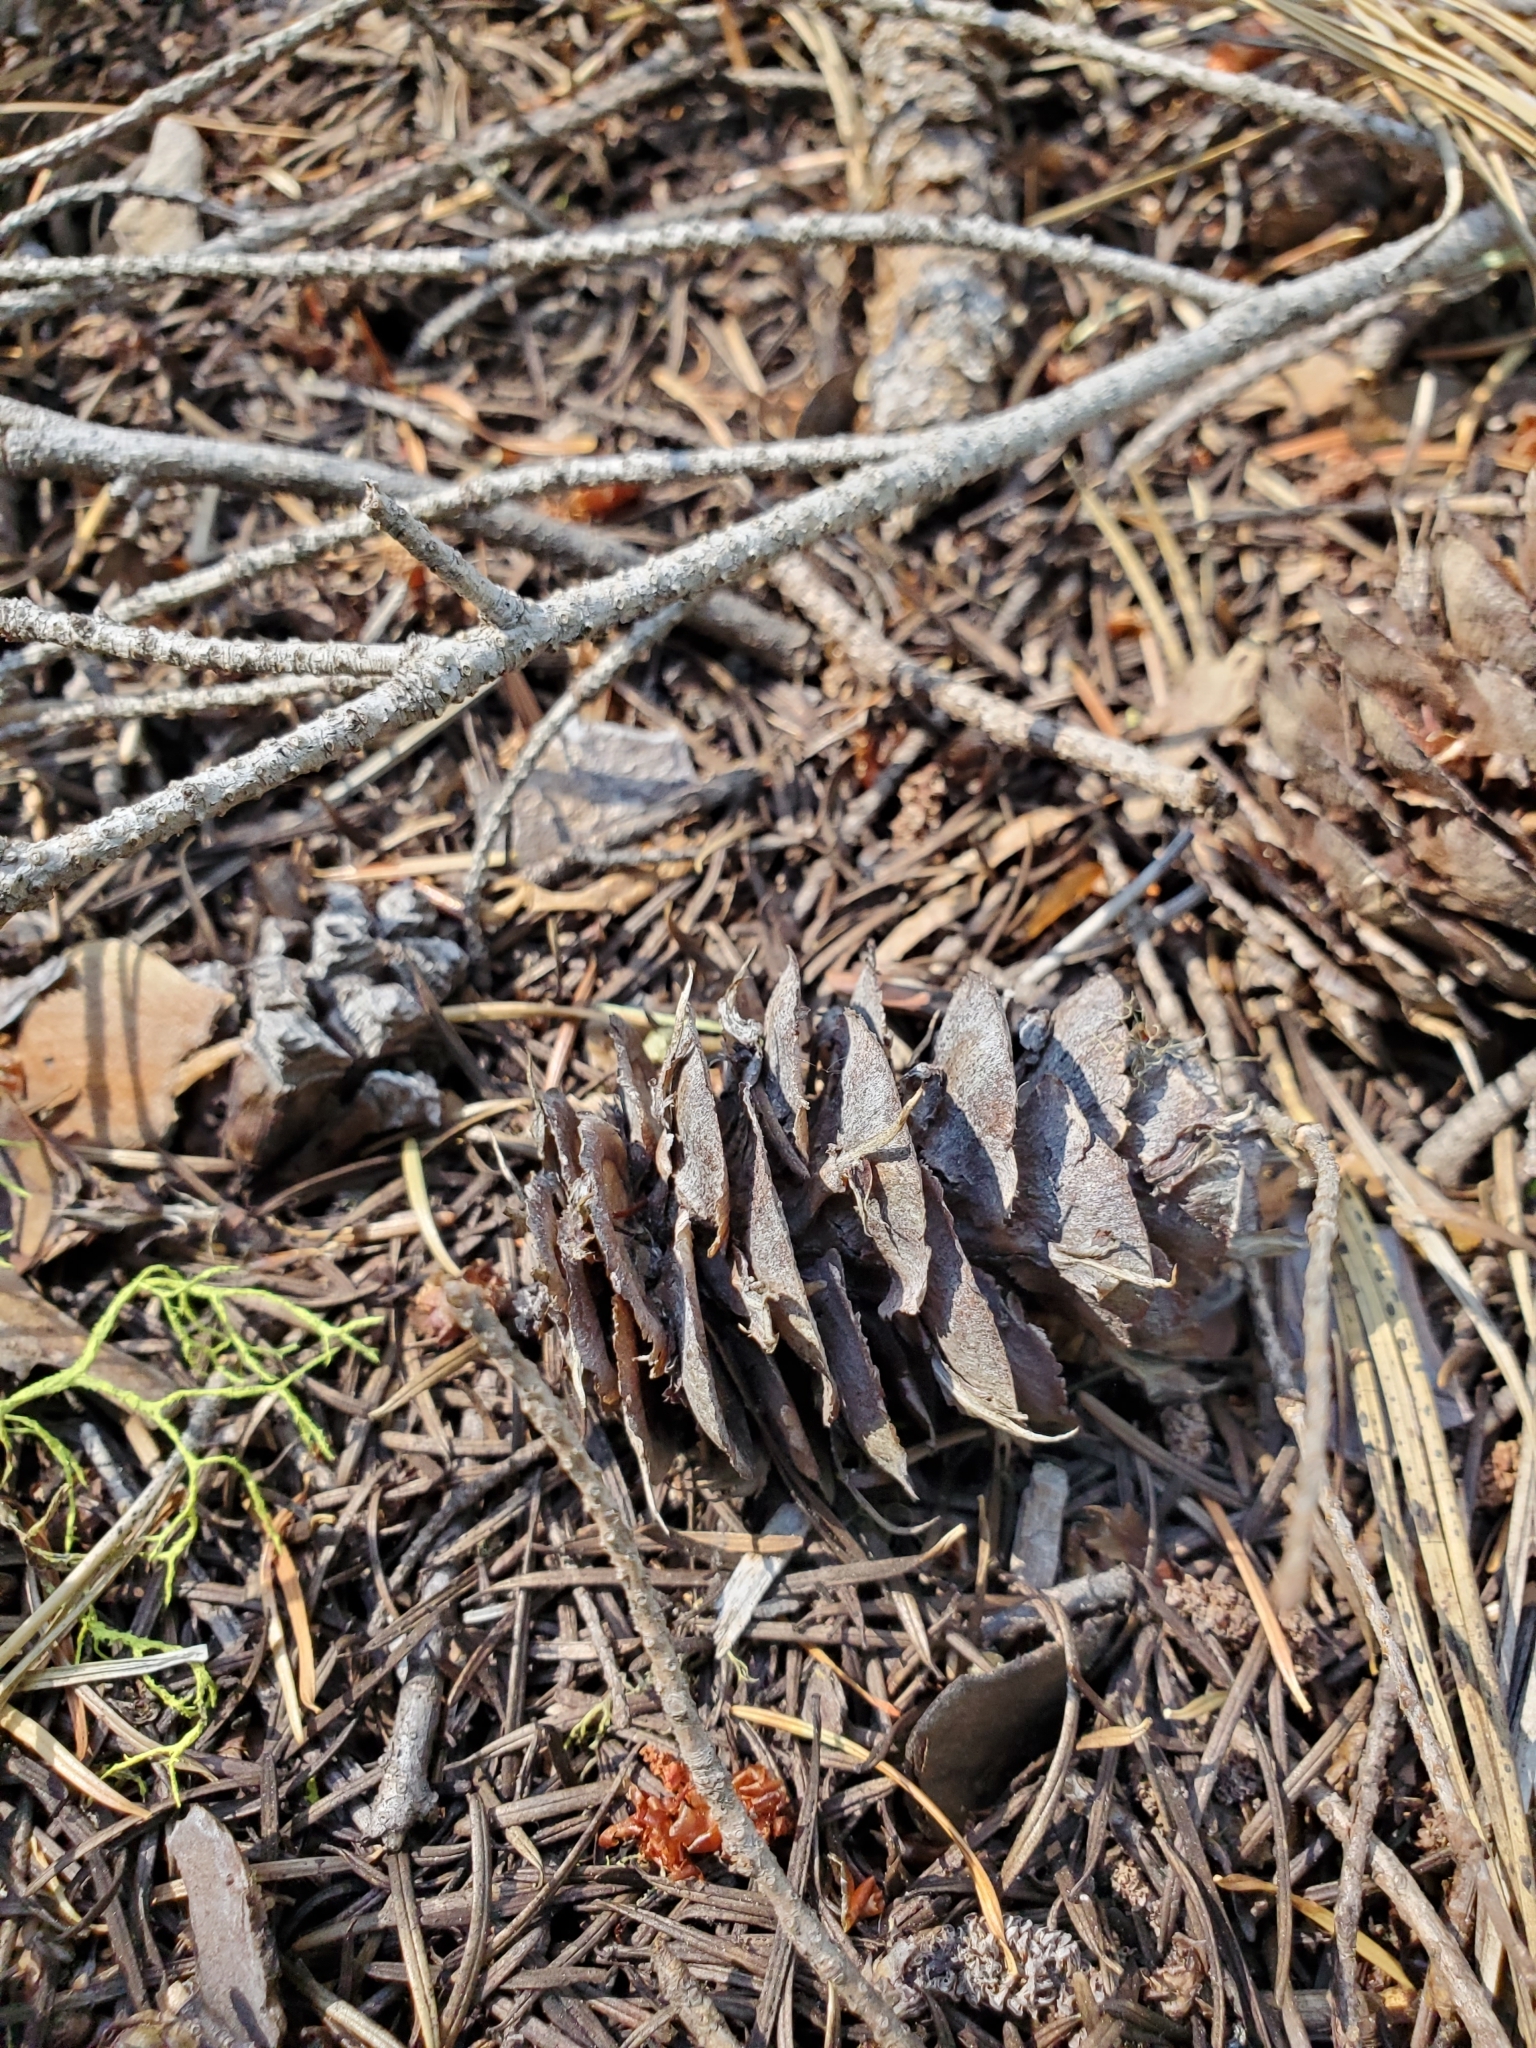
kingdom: Plantae
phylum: Tracheophyta
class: Pinopsida
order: Pinales
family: Pinaceae
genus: Pseudotsuga
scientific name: Pseudotsuga menziesii
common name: Douglas fir
